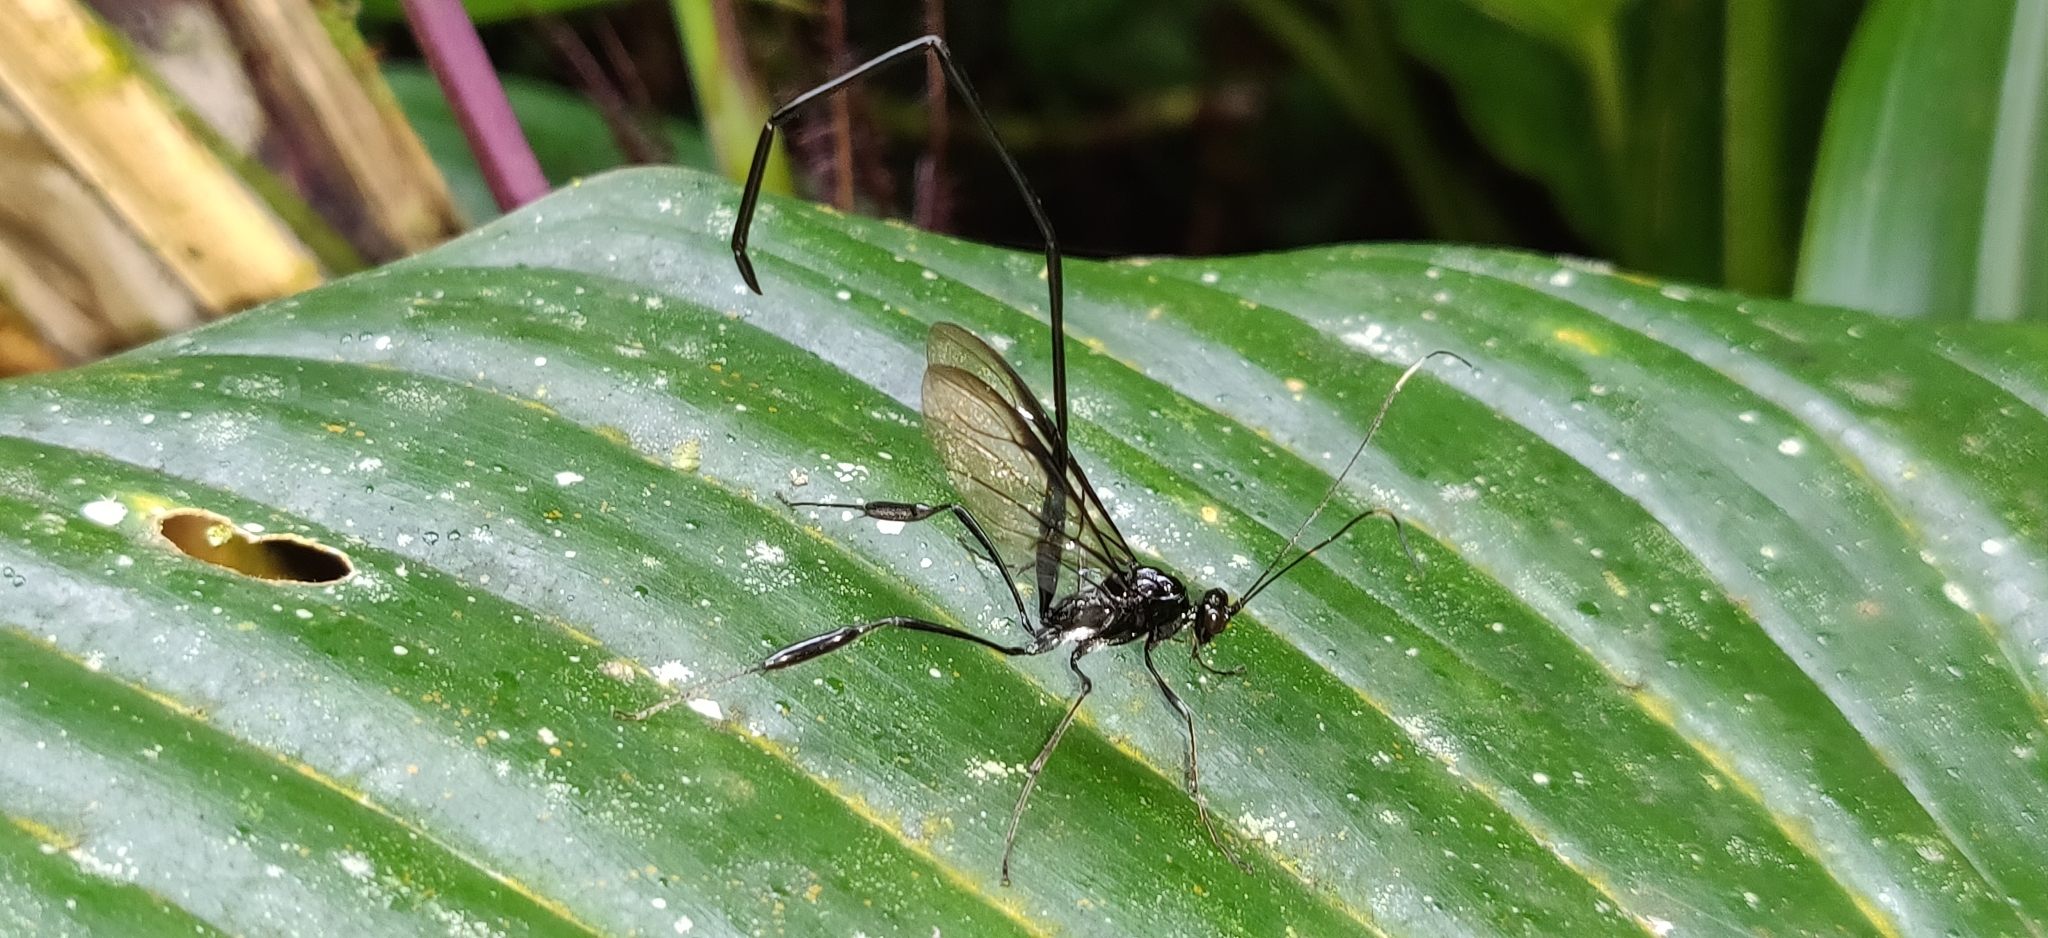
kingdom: Animalia
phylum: Arthropoda
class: Insecta
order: Hymenoptera
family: Pelecinidae
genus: Pelecinus
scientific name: Pelecinus polyturator
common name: American pelecinid wasp
